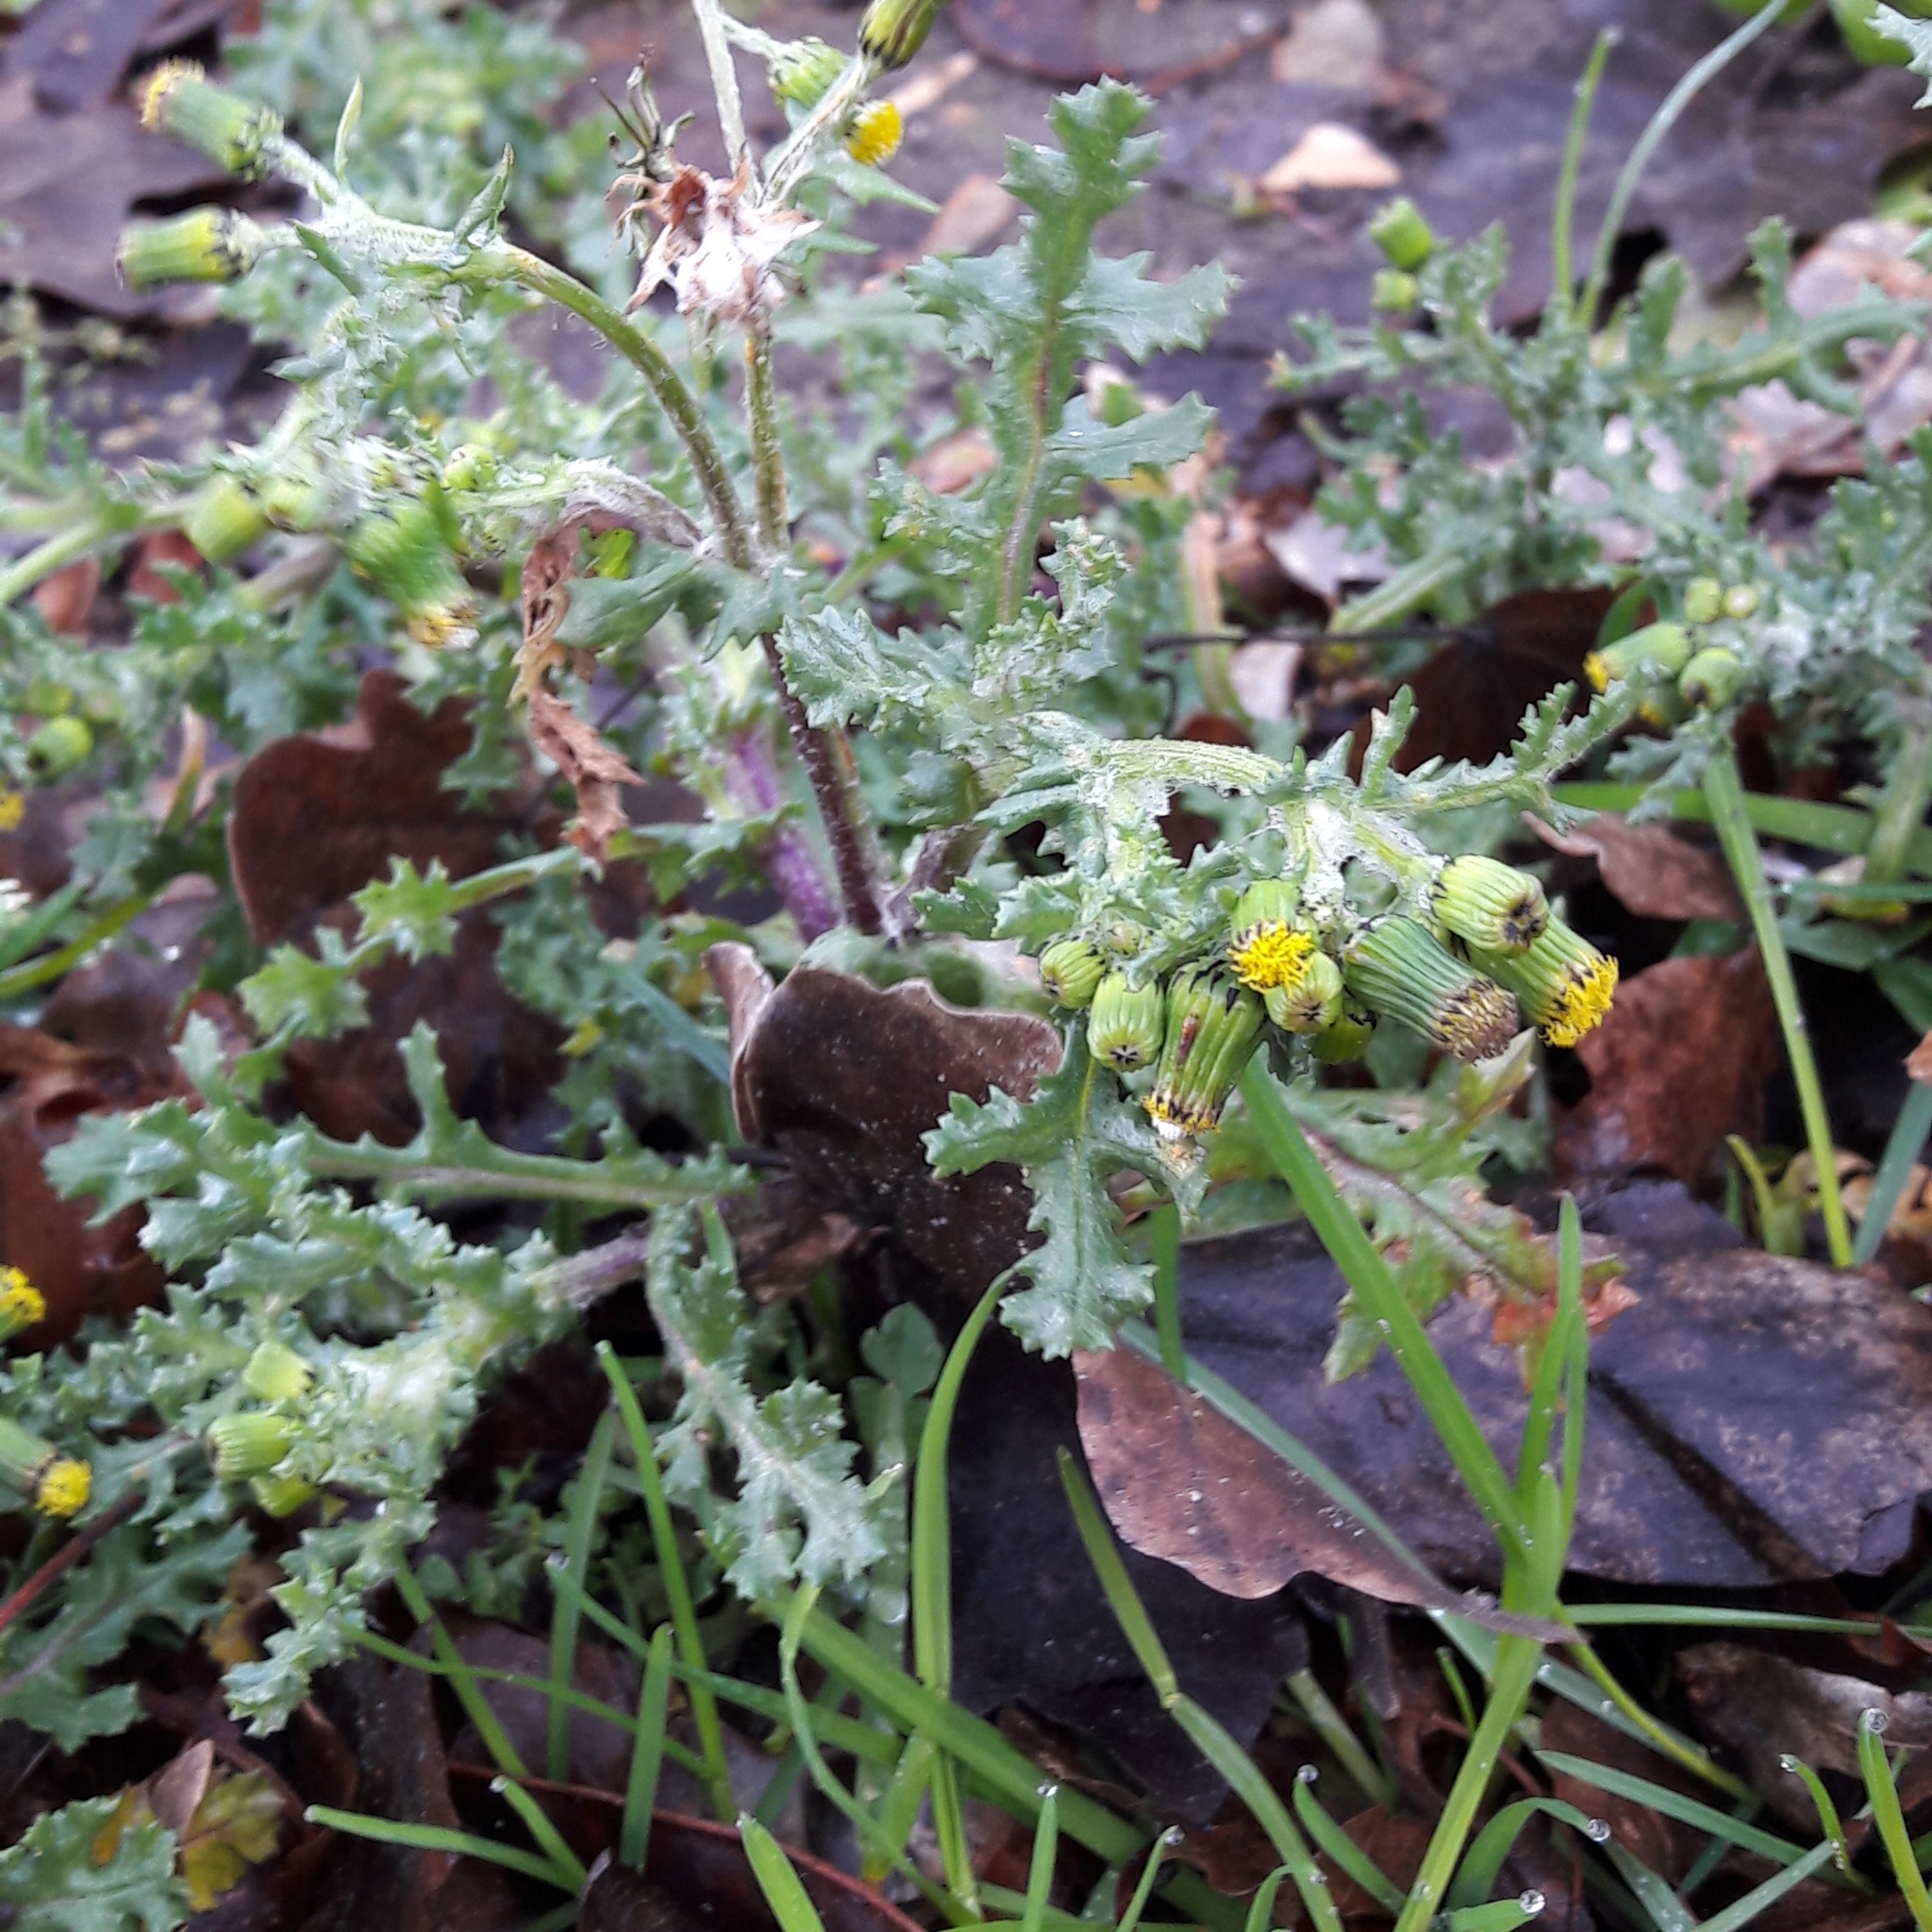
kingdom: Plantae
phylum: Tracheophyta
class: Magnoliopsida
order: Asterales
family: Asteraceae
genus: Senecio
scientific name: Senecio vulgaris
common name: Old-man-in-the-spring
